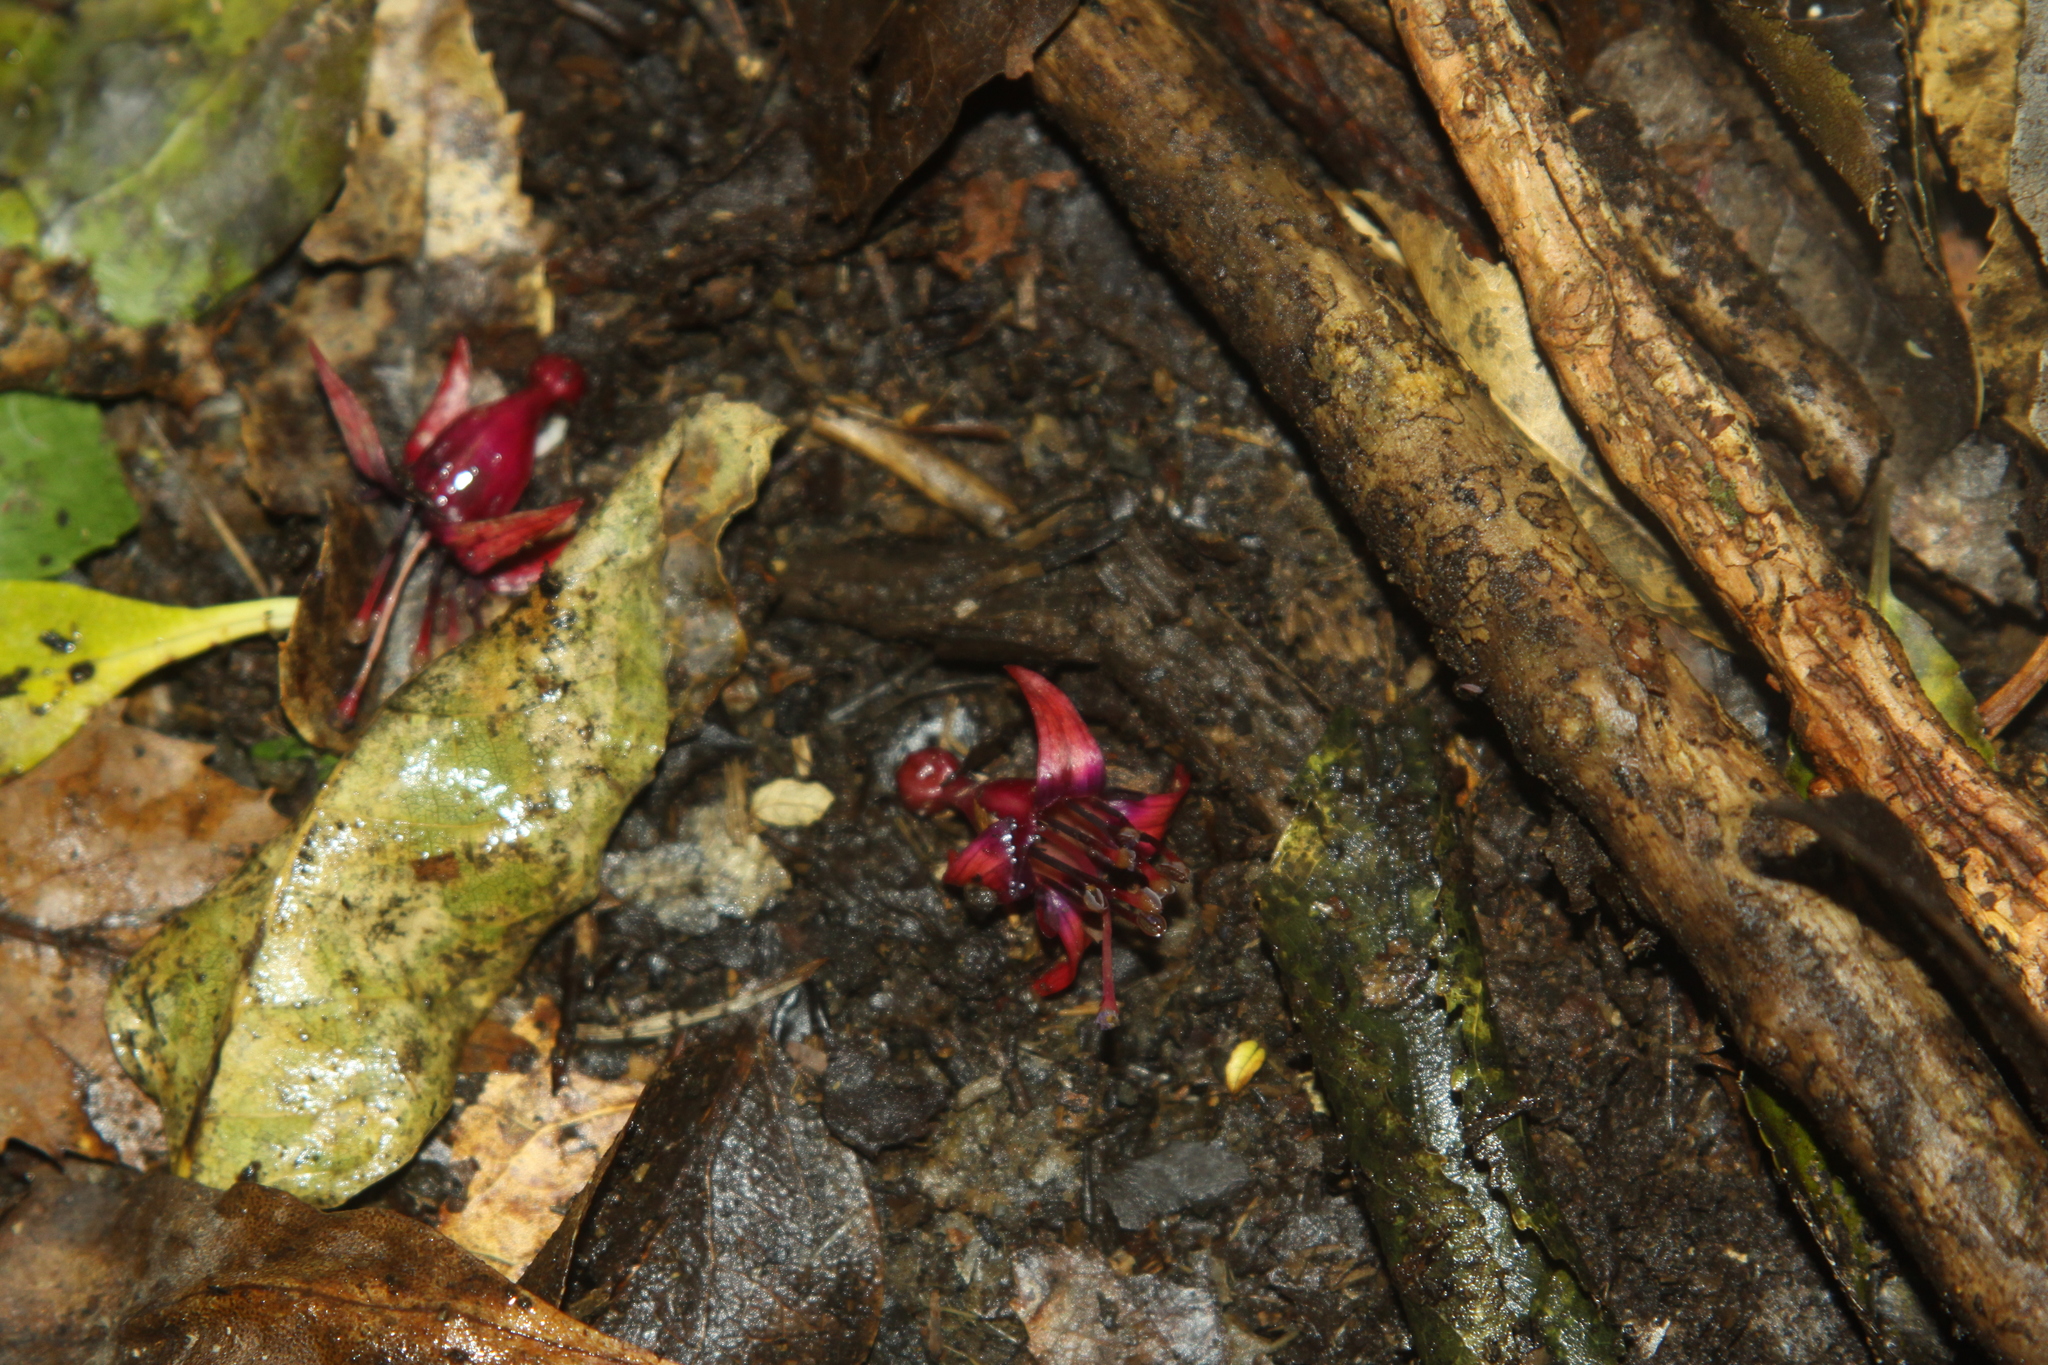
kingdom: Plantae
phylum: Tracheophyta
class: Magnoliopsida
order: Myrtales
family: Onagraceae
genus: Fuchsia
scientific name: Fuchsia excorticata
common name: Tree fuchsia
